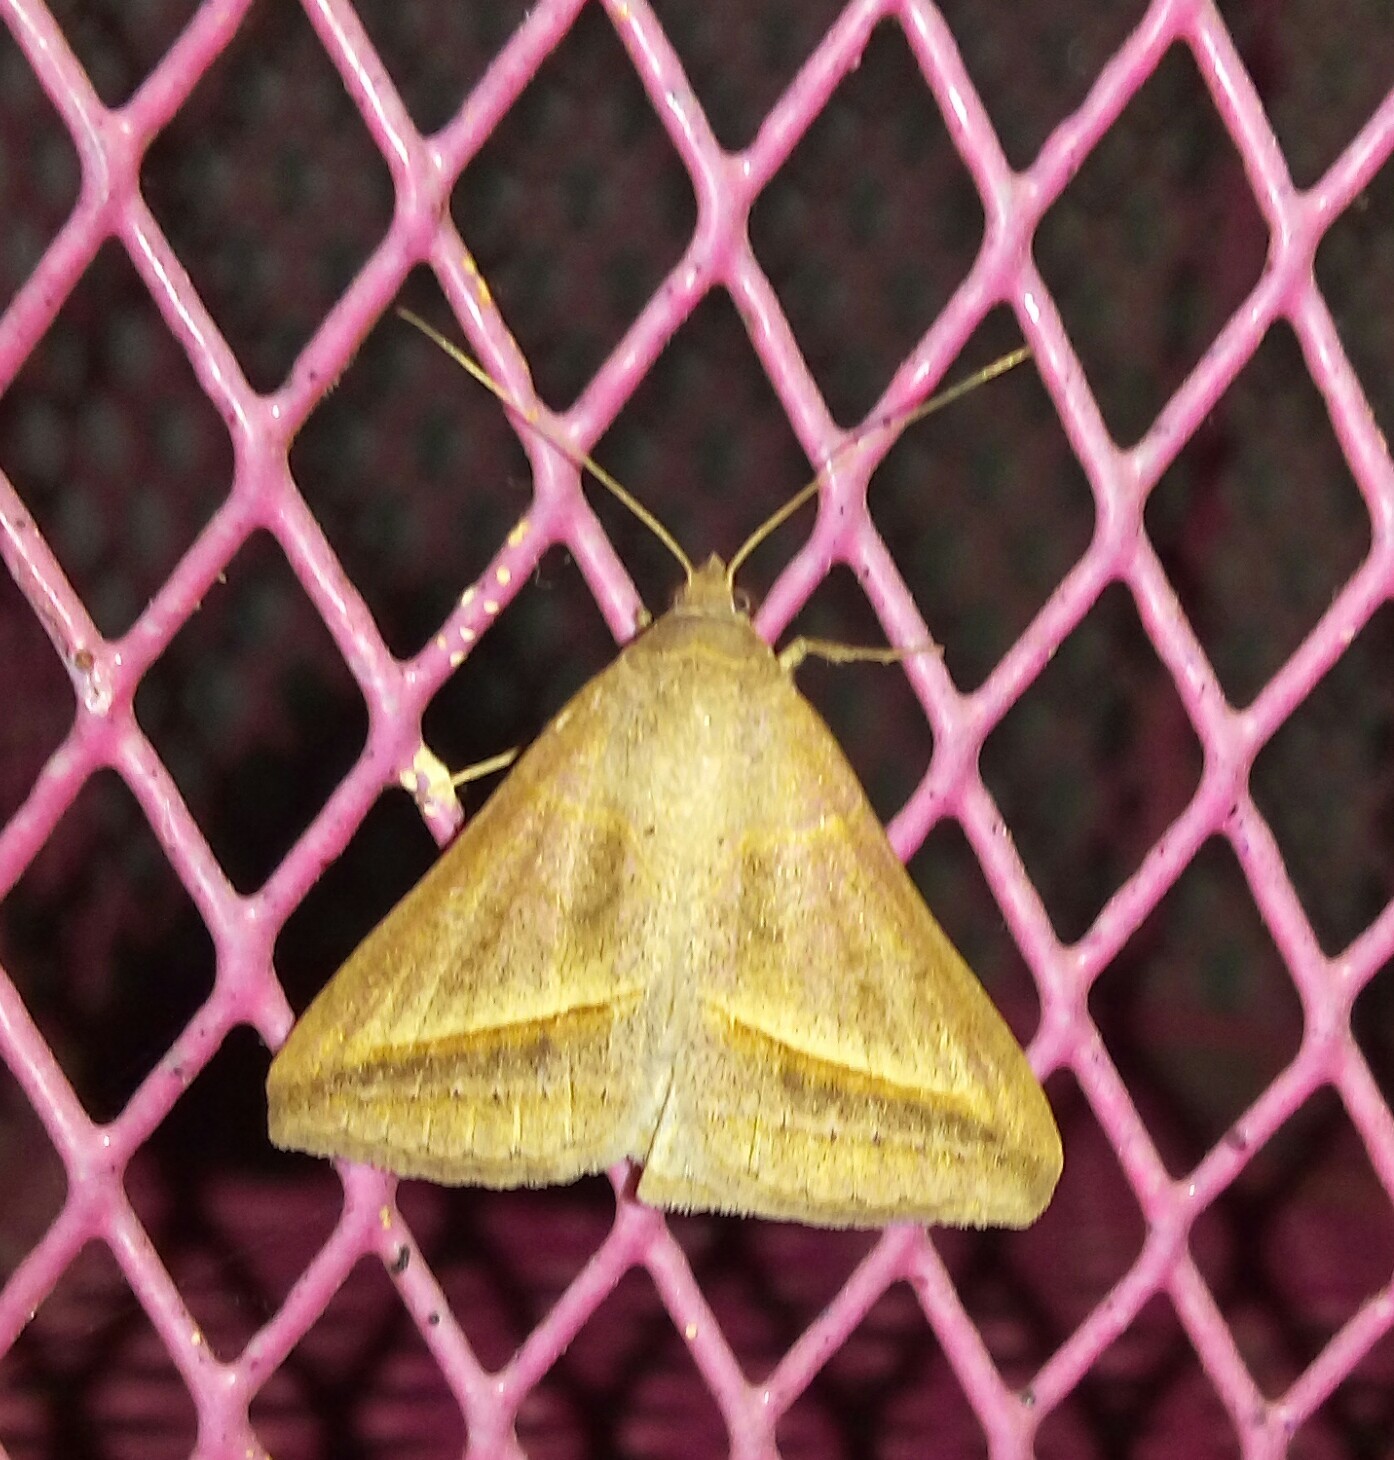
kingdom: Animalia
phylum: Arthropoda
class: Insecta
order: Lepidoptera
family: Erebidae
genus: Mocis
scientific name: Mocis frugalis
